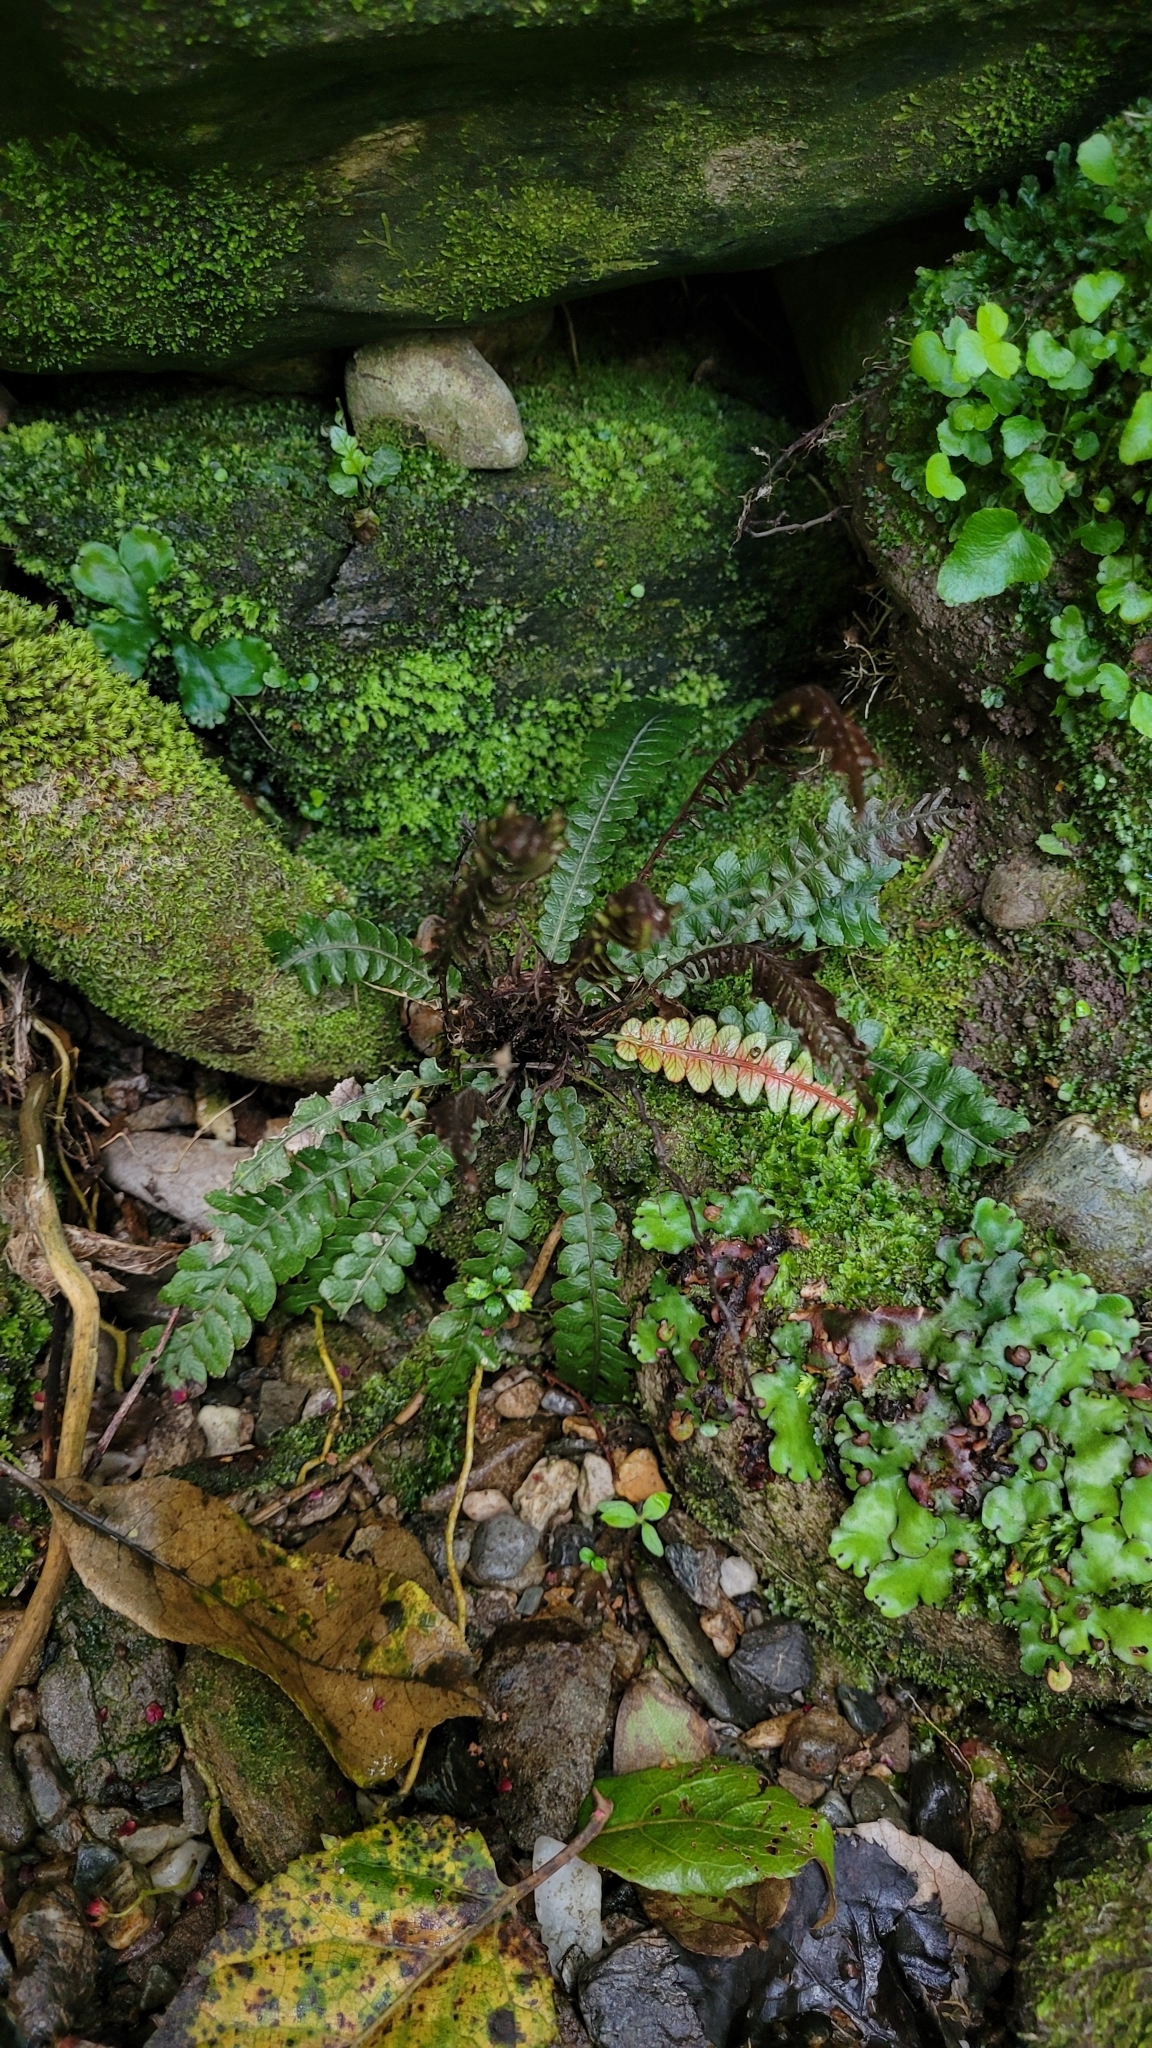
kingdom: Plantae
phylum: Tracheophyta
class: Polypodiopsida
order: Polypodiales
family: Blechnaceae
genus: Austroblechnum
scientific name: Austroblechnum membranaceum
